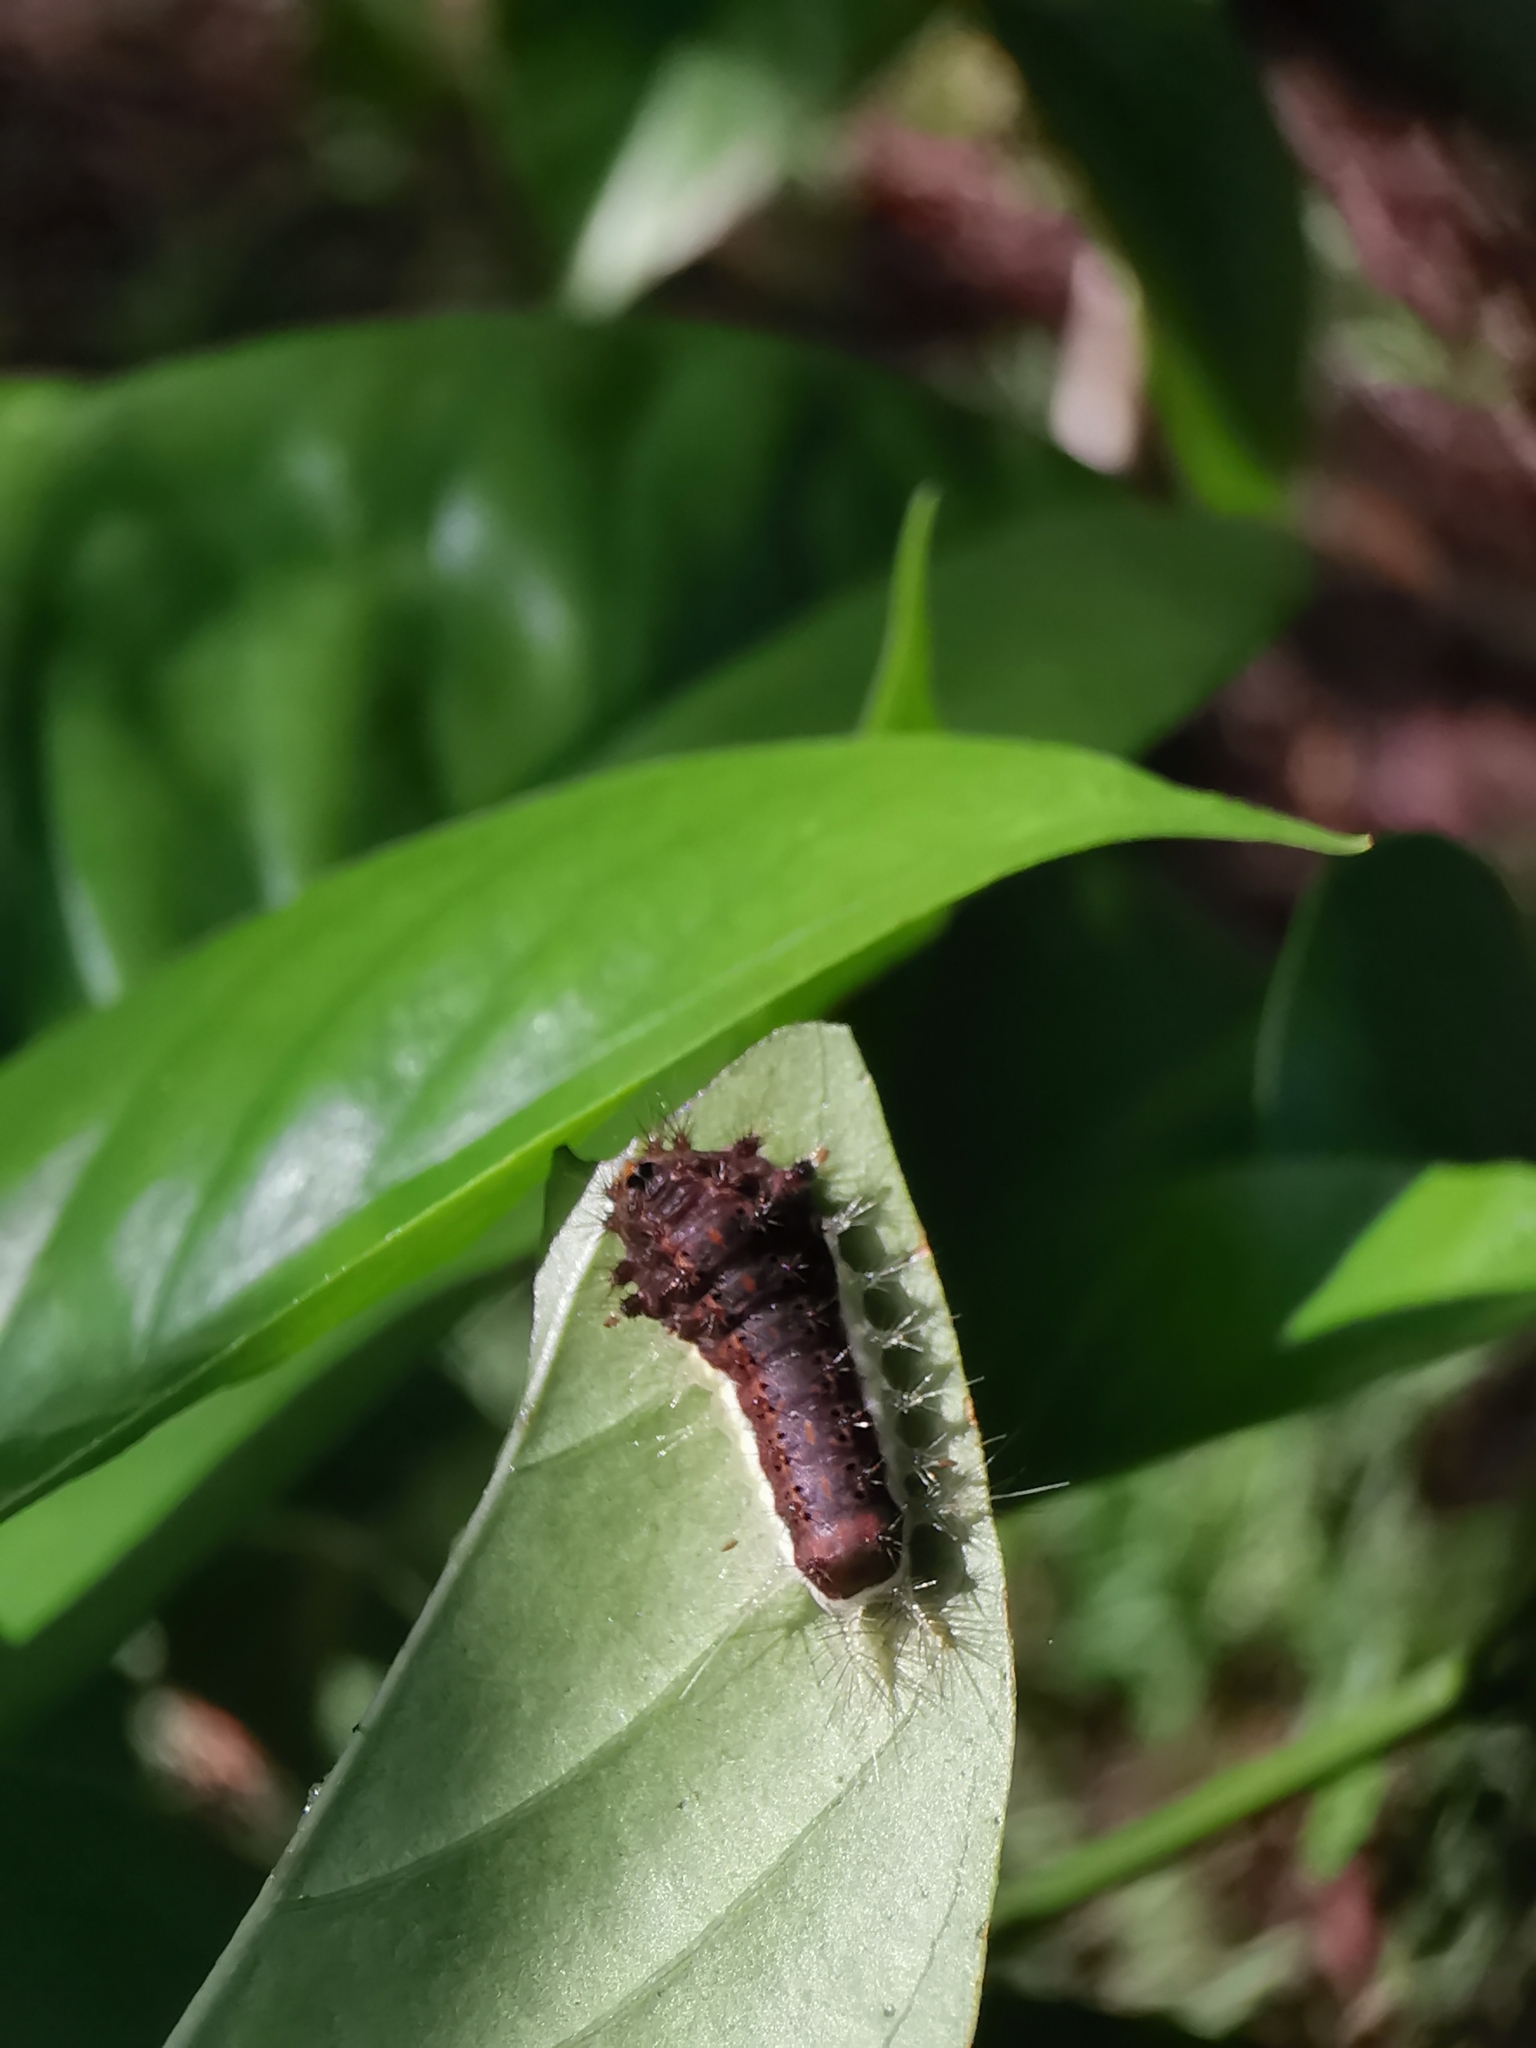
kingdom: Animalia
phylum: Arthropoda
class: Insecta
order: Lepidoptera
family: Limacodidae
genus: Orthocraspeda
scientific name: Orthocraspeda furva
